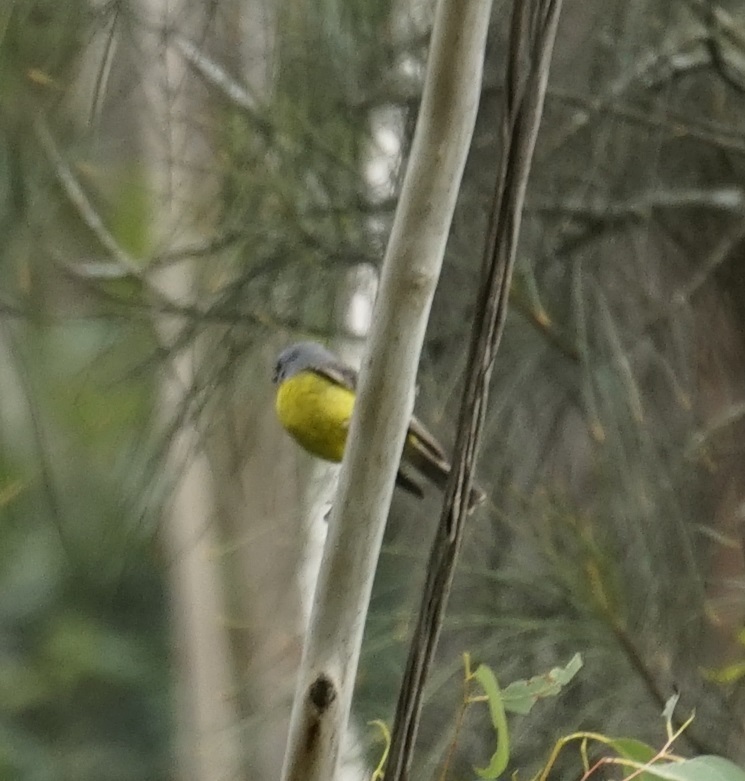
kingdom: Animalia
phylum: Chordata
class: Aves
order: Passeriformes
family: Petroicidae
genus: Eopsaltria
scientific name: Eopsaltria australis
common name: Eastern yellow robin
